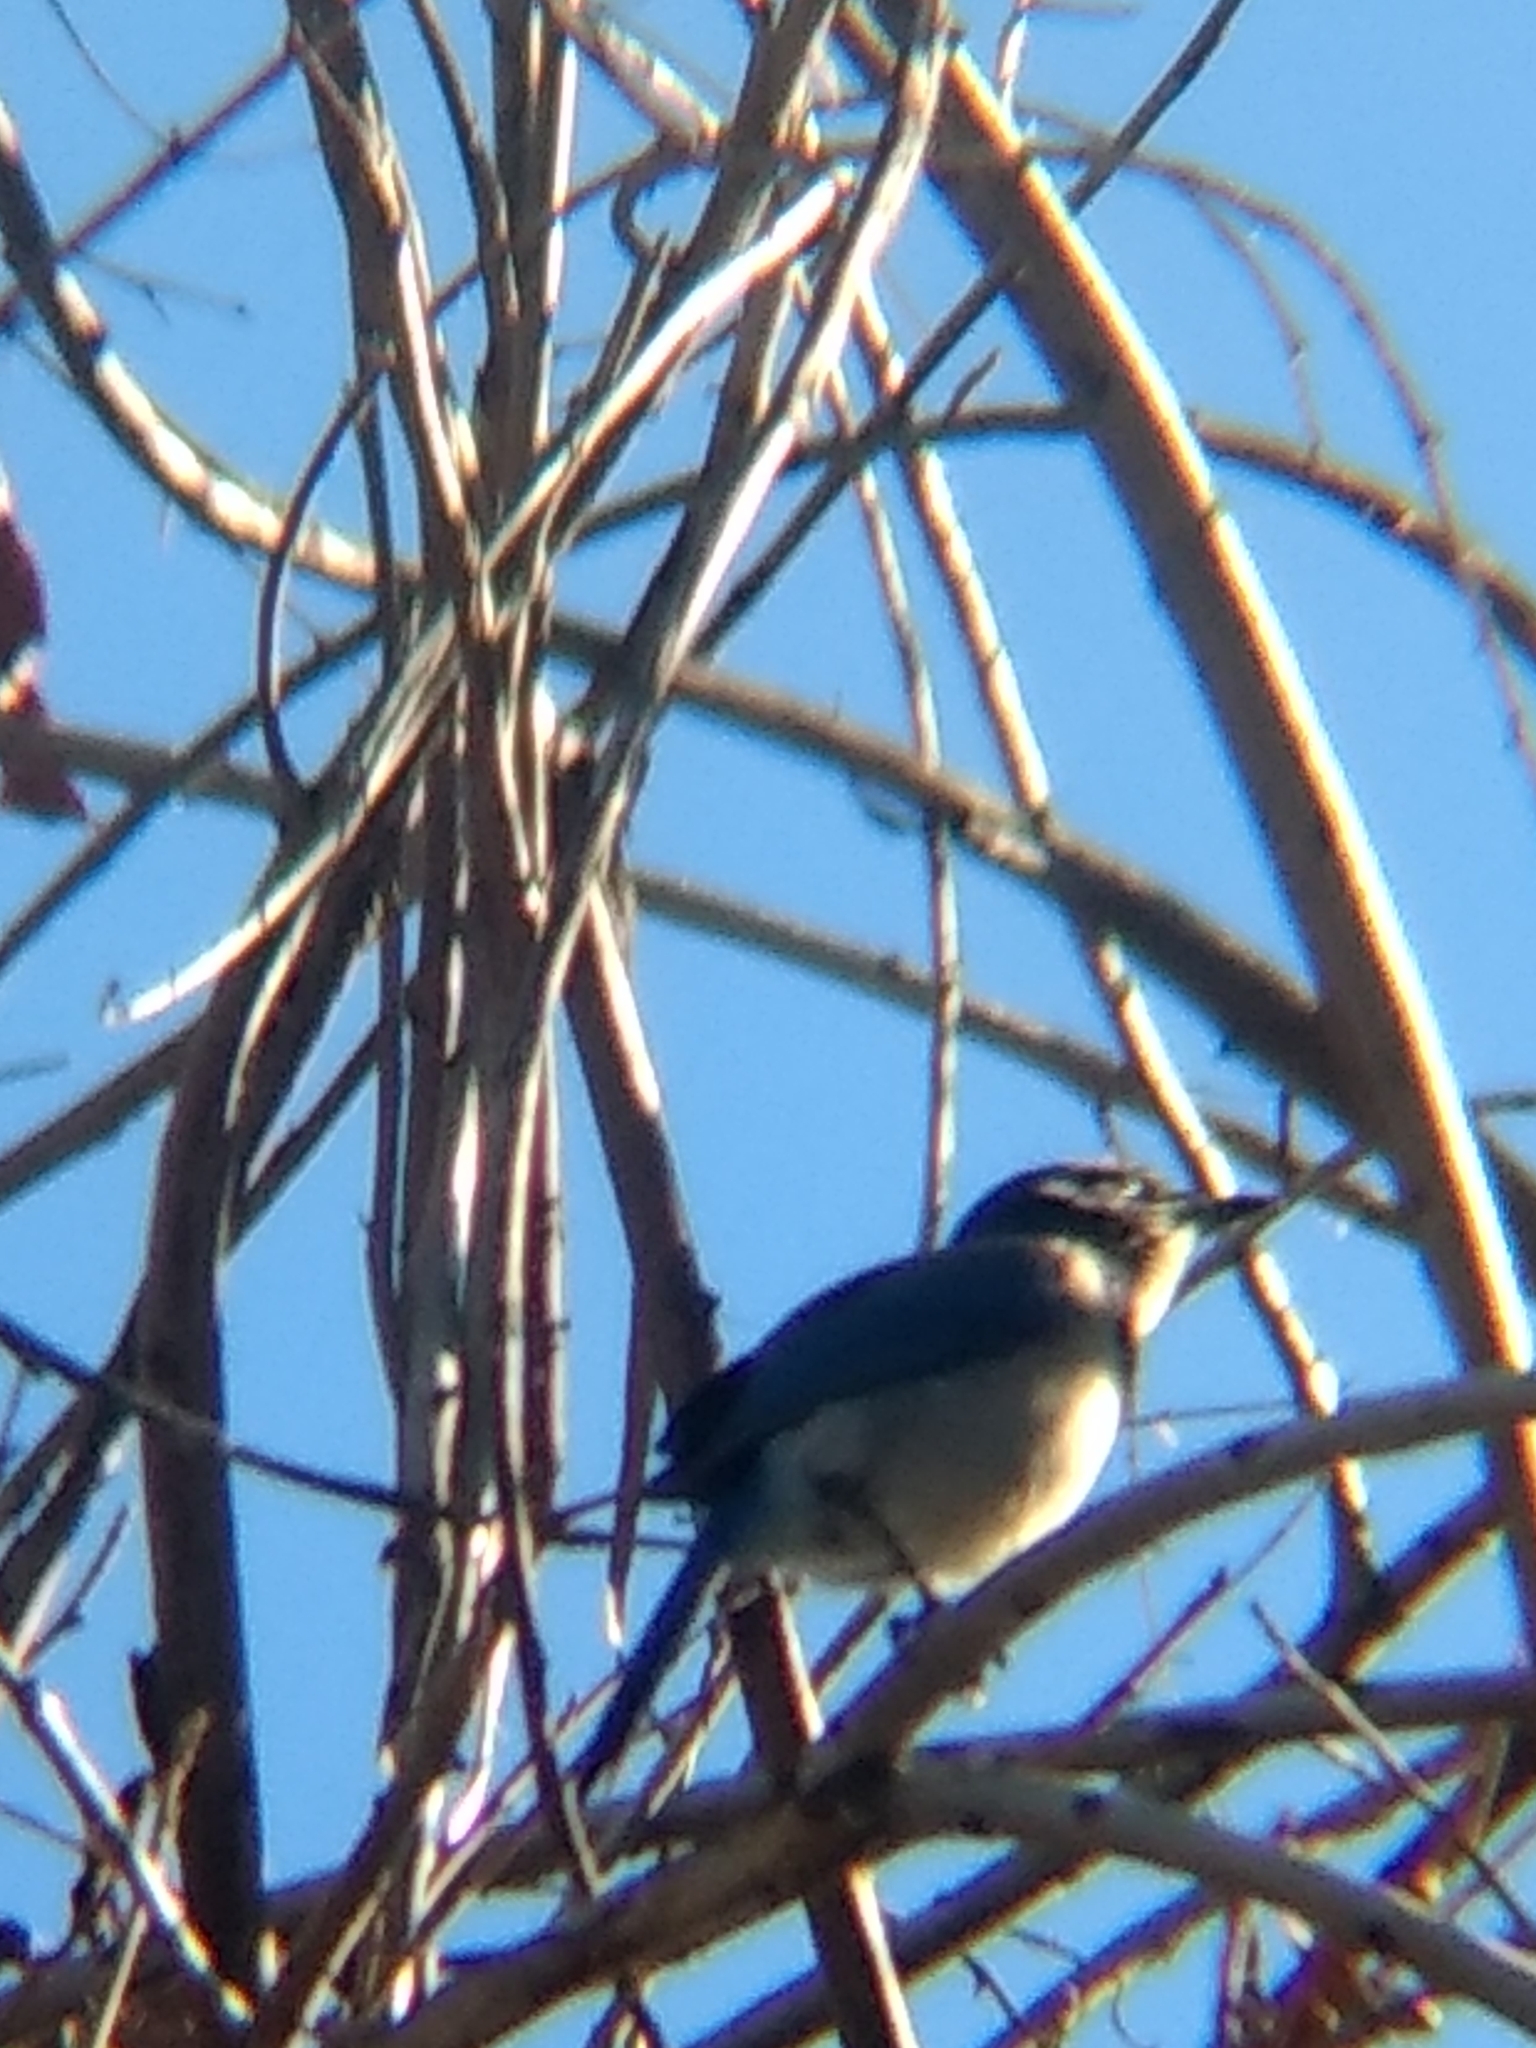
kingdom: Animalia
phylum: Chordata
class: Aves
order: Passeriformes
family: Corvidae
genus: Aphelocoma
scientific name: Aphelocoma californica
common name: California scrub-jay
